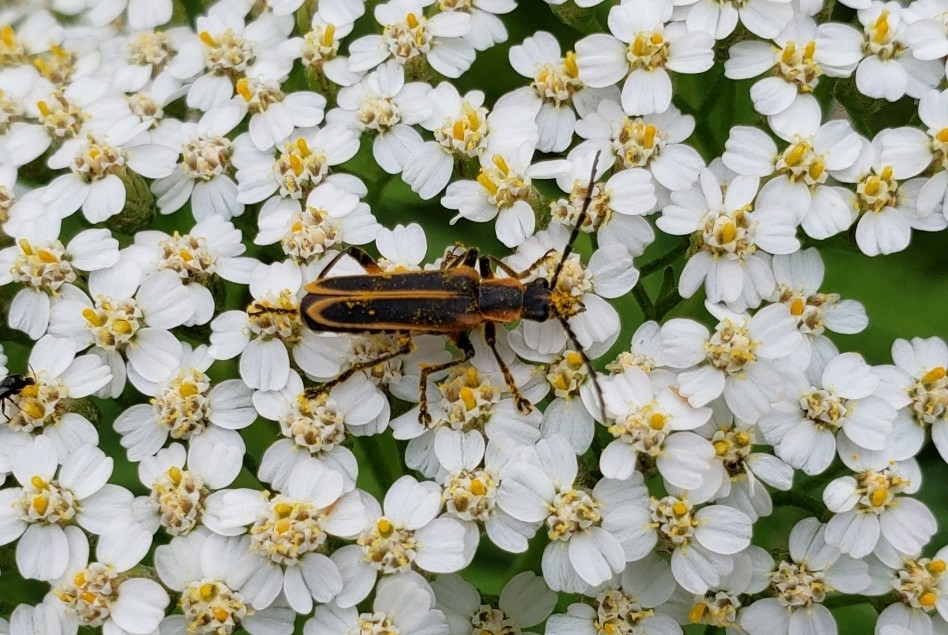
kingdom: Animalia
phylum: Arthropoda
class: Insecta
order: Coleoptera
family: Cantharidae
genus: Chauliognathus
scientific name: Chauliognathus marginatus
